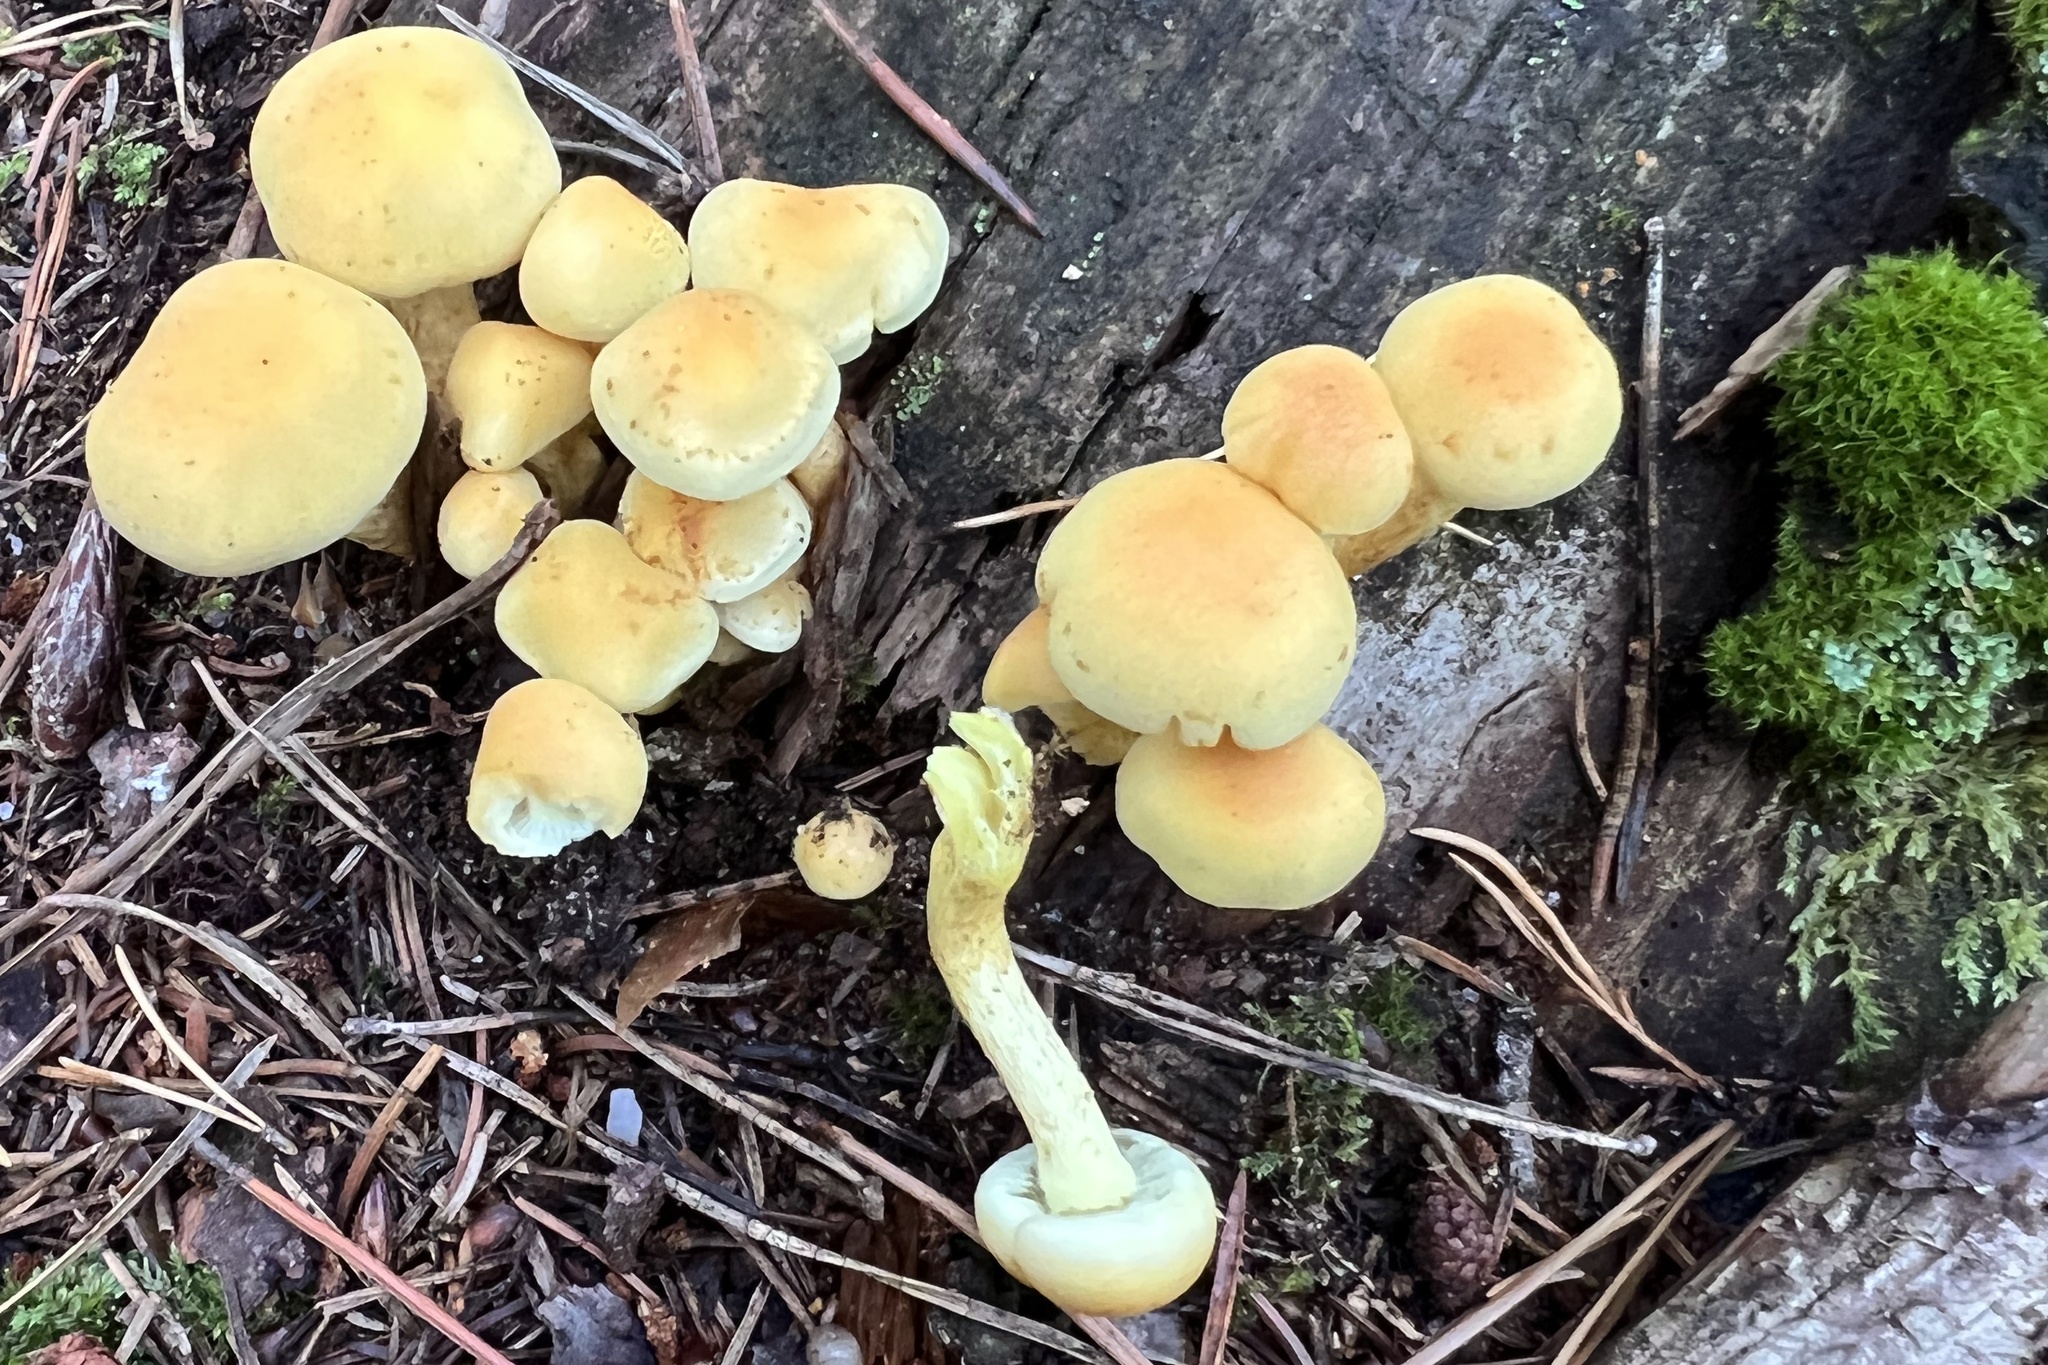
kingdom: Fungi
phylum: Basidiomycota
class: Agaricomycetes
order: Agaricales
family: Strophariaceae
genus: Hypholoma
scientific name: Hypholoma fasciculare
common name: Sulphur tuft
